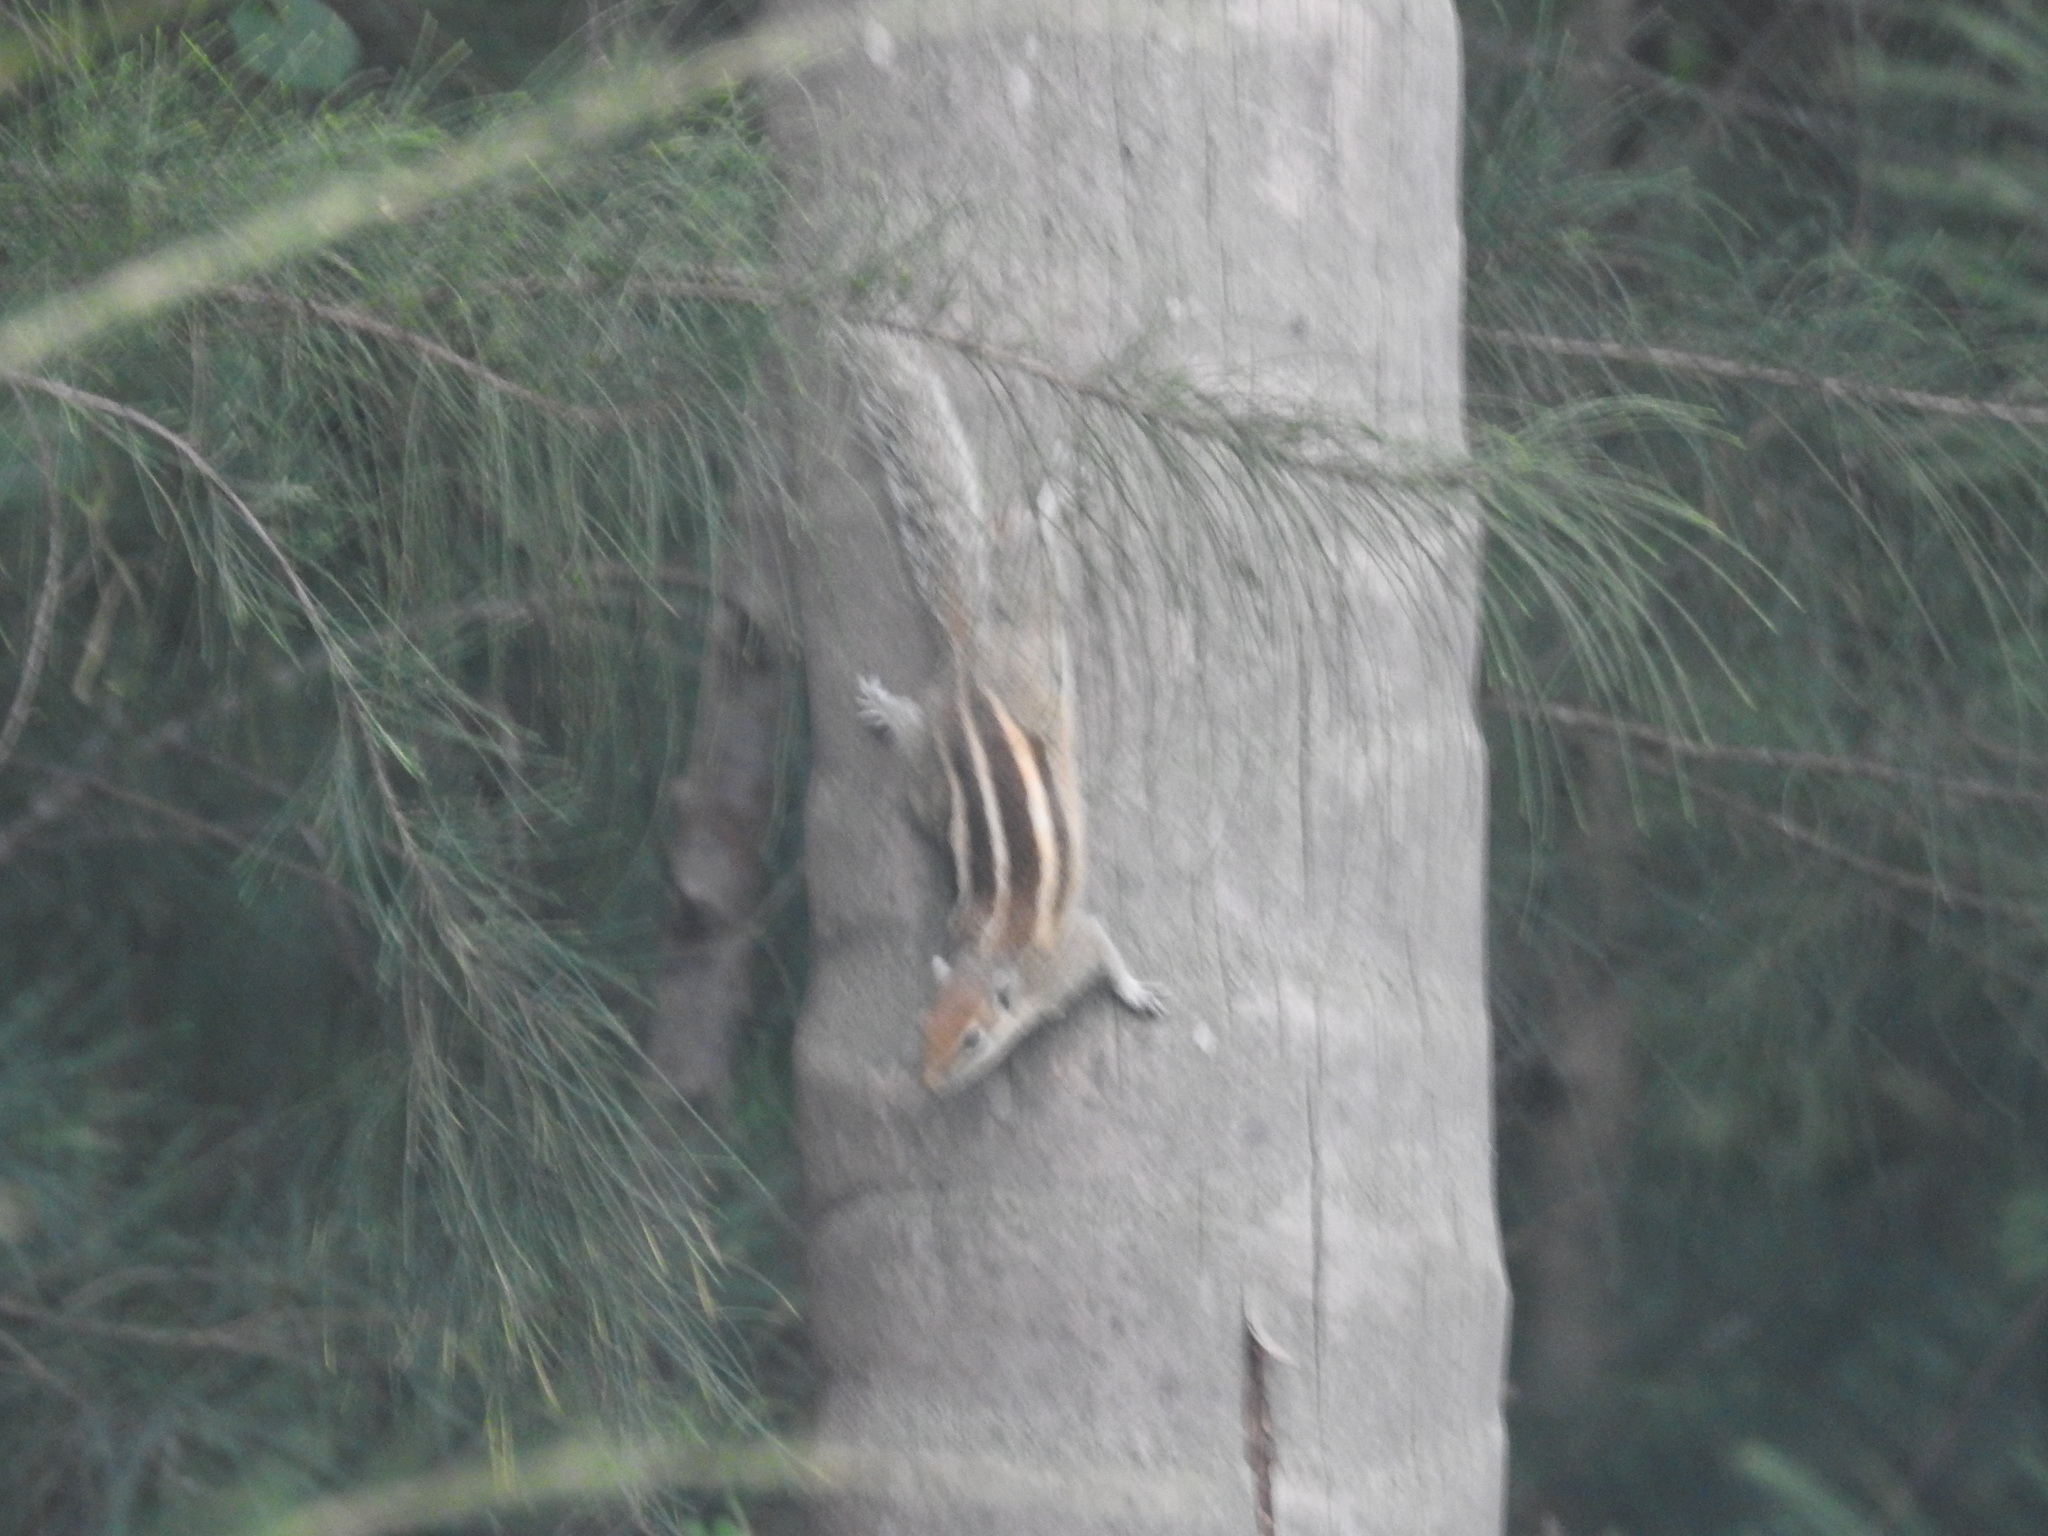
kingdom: Animalia
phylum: Chordata
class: Mammalia
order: Rodentia
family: Sciuridae
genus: Funambulus
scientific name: Funambulus palmarum
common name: Indian palm squirrel
